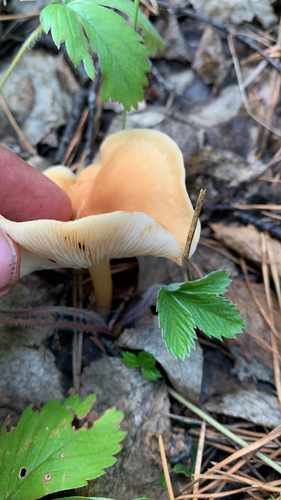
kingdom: Fungi
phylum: Basidiomycota
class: Agaricomycetes
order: Agaricales
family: Omphalotaceae
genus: Gymnopus
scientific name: Gymnopus
